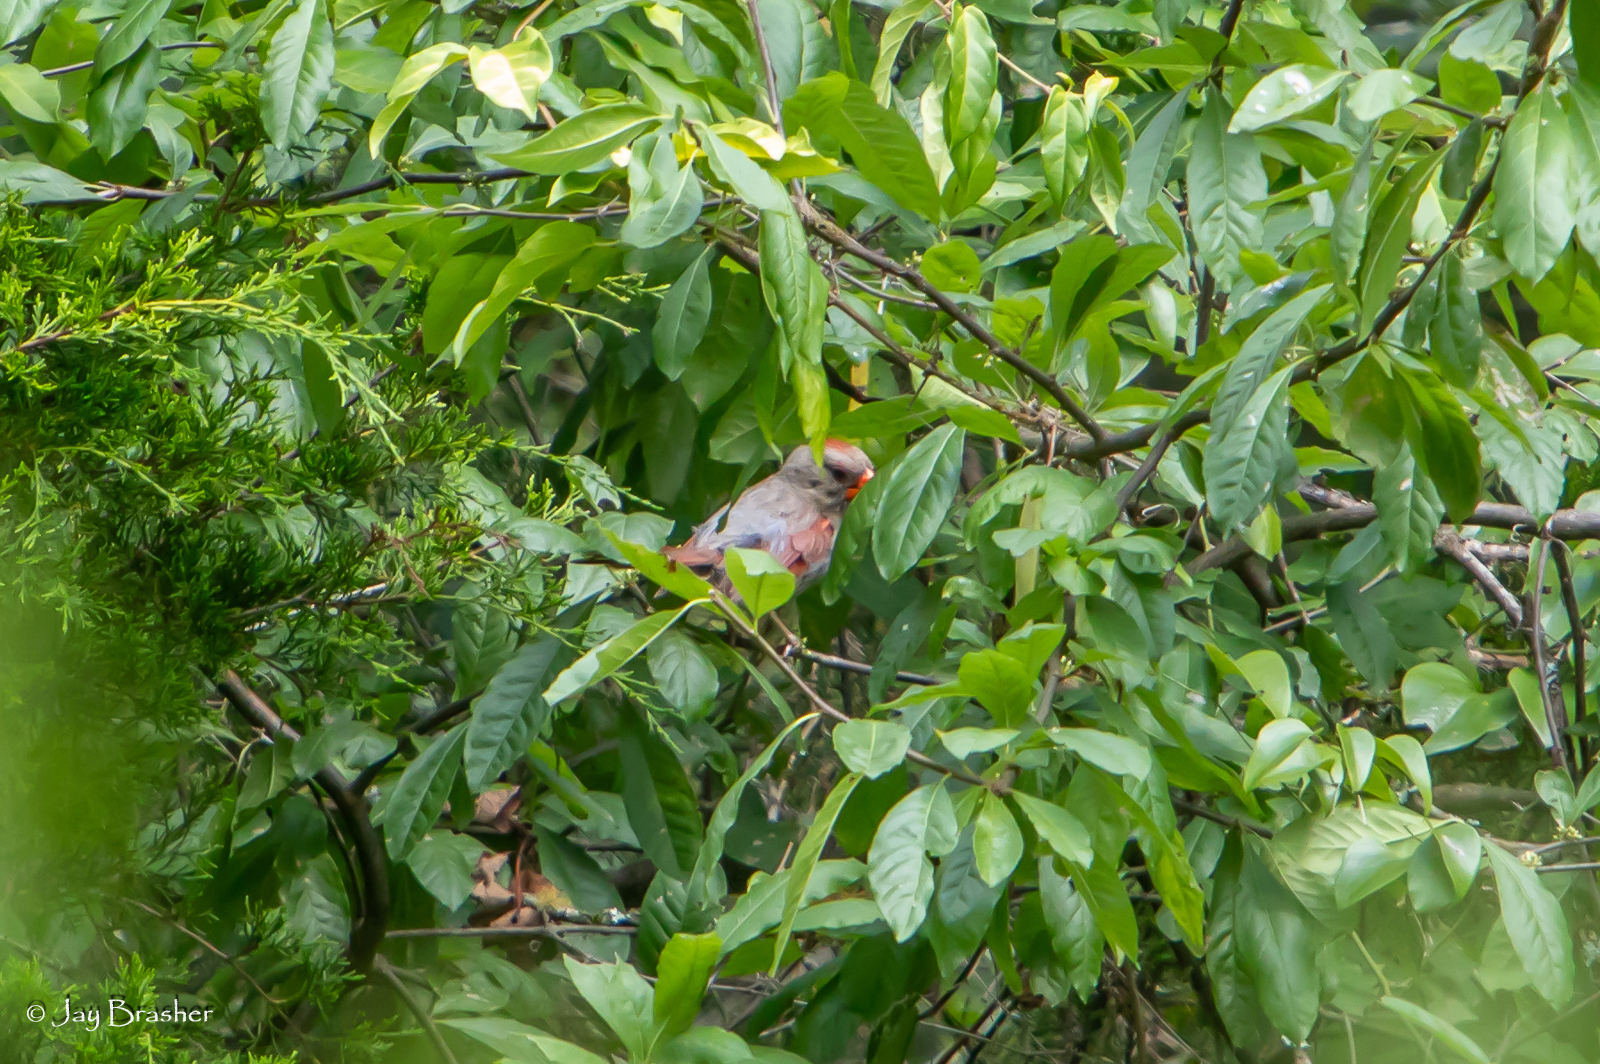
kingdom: Animalia
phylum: Chordata
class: Aves
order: Passeriformes
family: Cardinalidae
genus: Cardinalis
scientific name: Cardinalis cardinalis
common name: Northern cardinal
